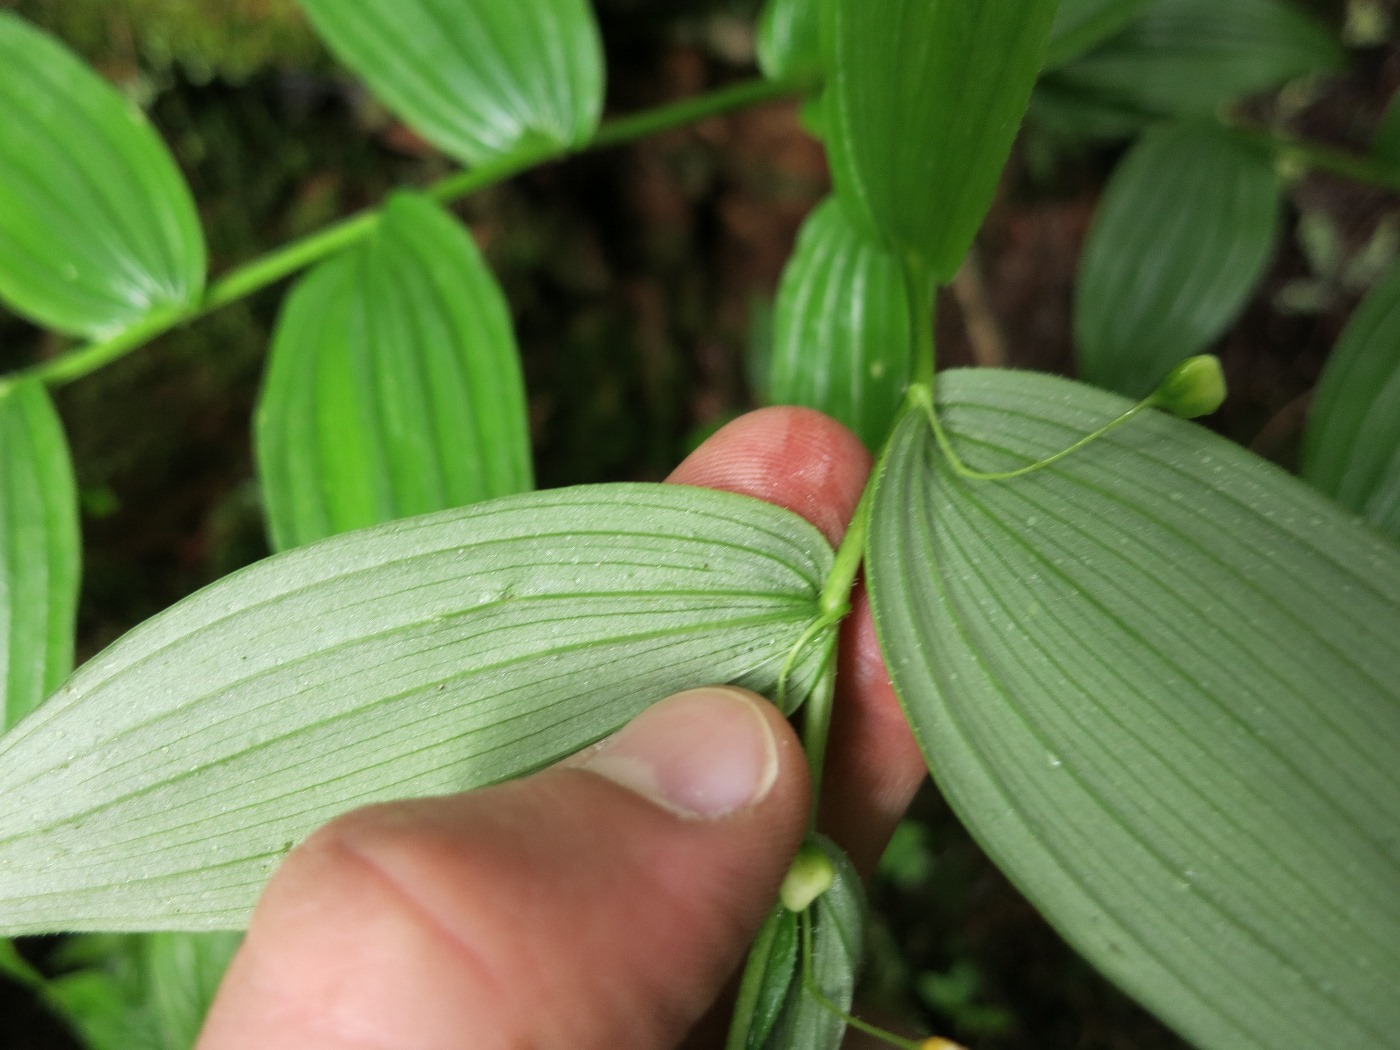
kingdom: Plantae
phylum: Tracheophyta
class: Liliopsida
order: Liliales
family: Liliaceae
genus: Streptopus
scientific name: Streptopus lanceolatus
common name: Rose mandarin
